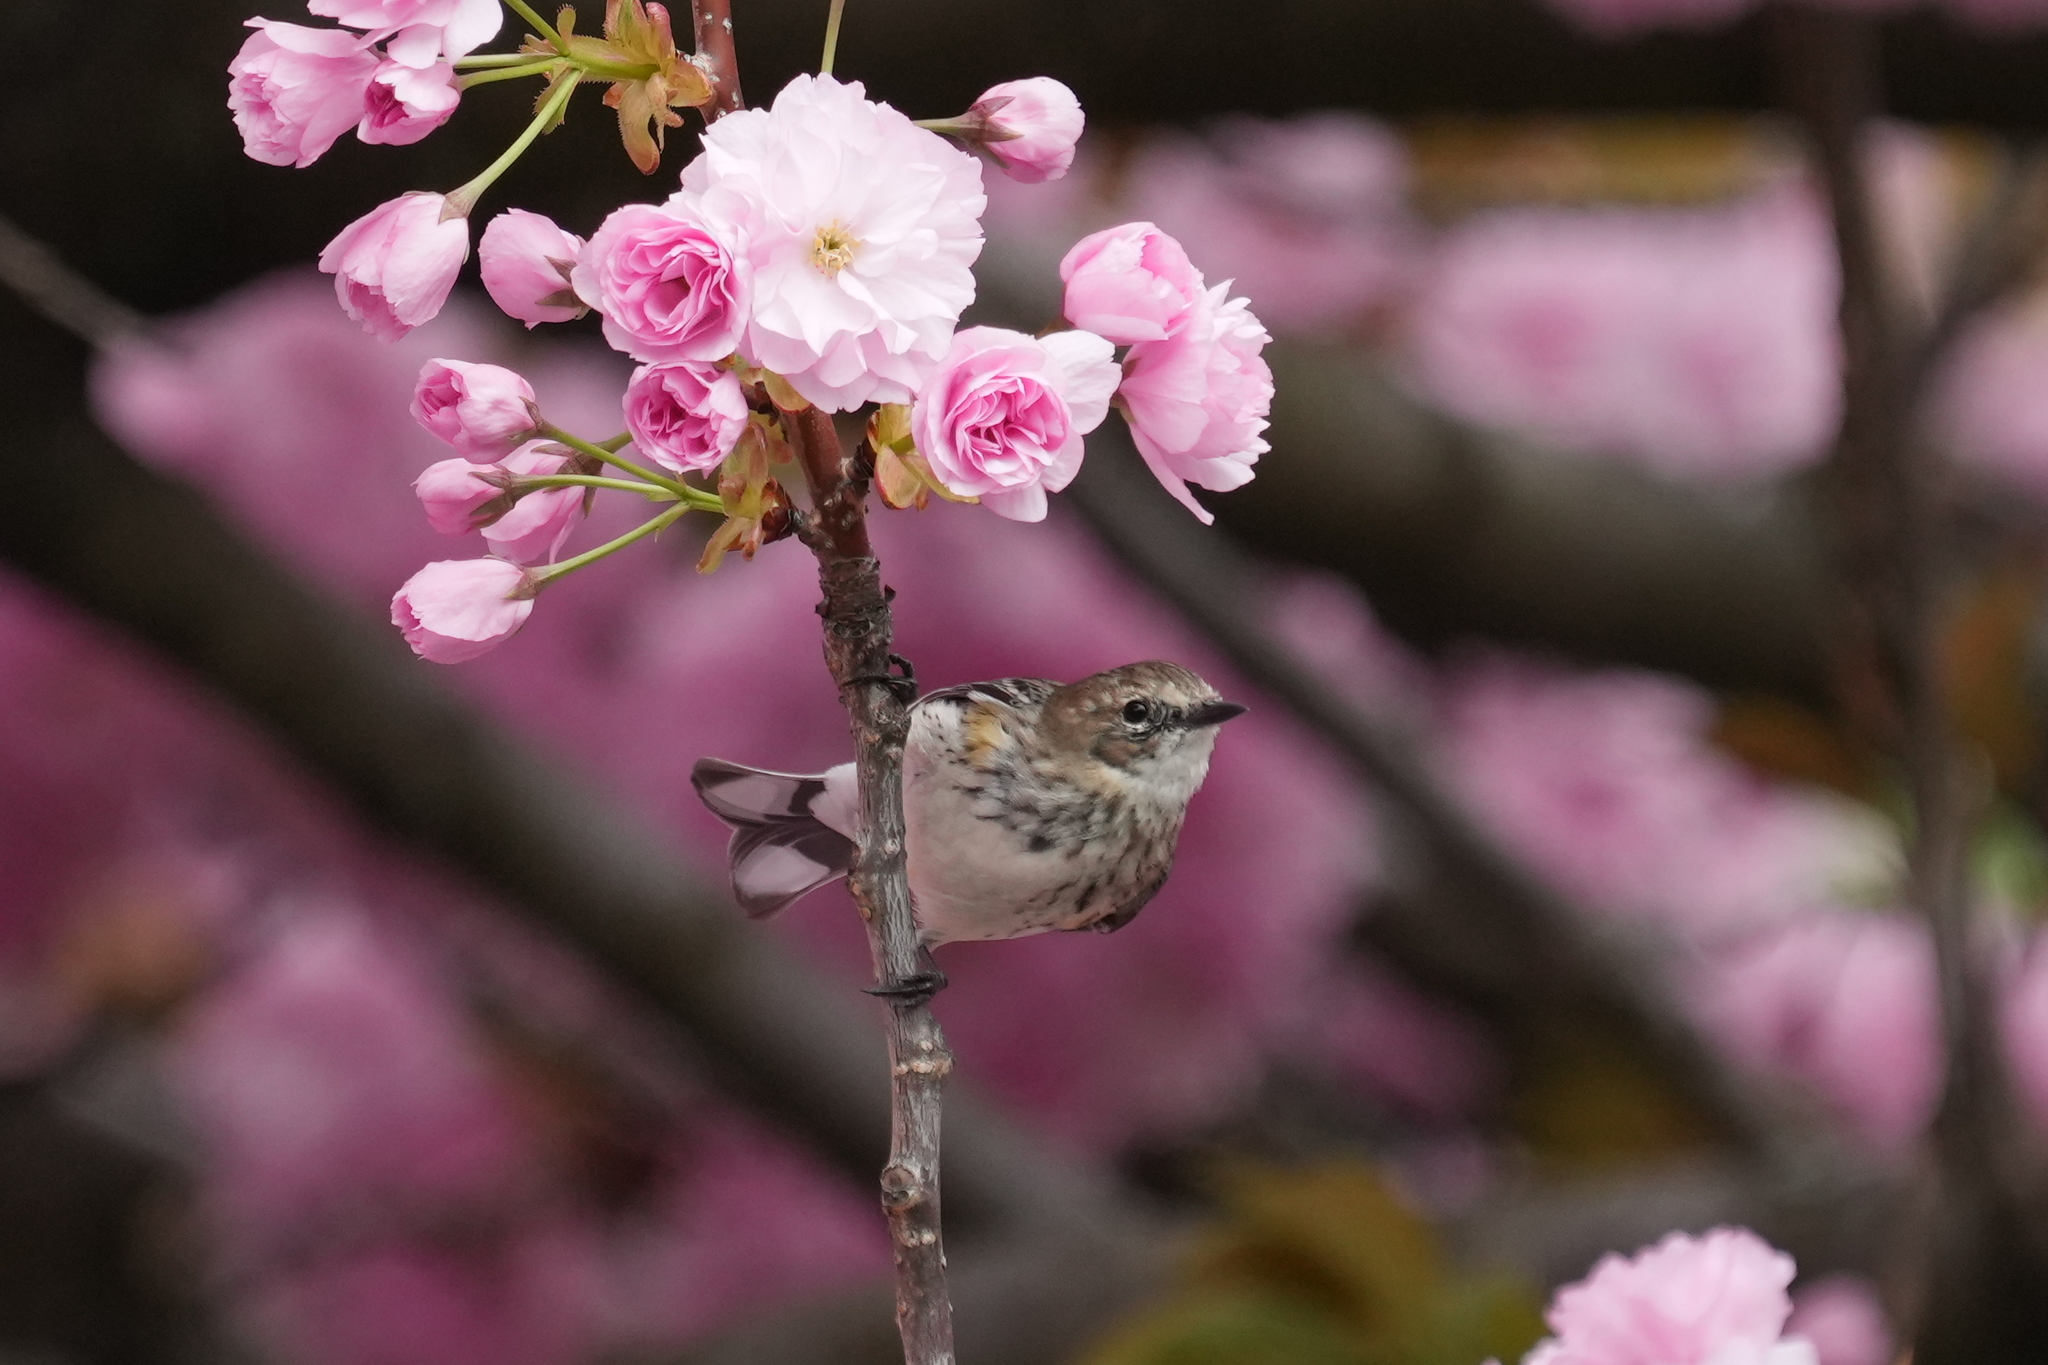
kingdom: Animalia
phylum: Chordata
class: Aves
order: Passeriformes
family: Parulidae
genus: Setophaga
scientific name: Setophaga coronata
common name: Myrtle warbler
